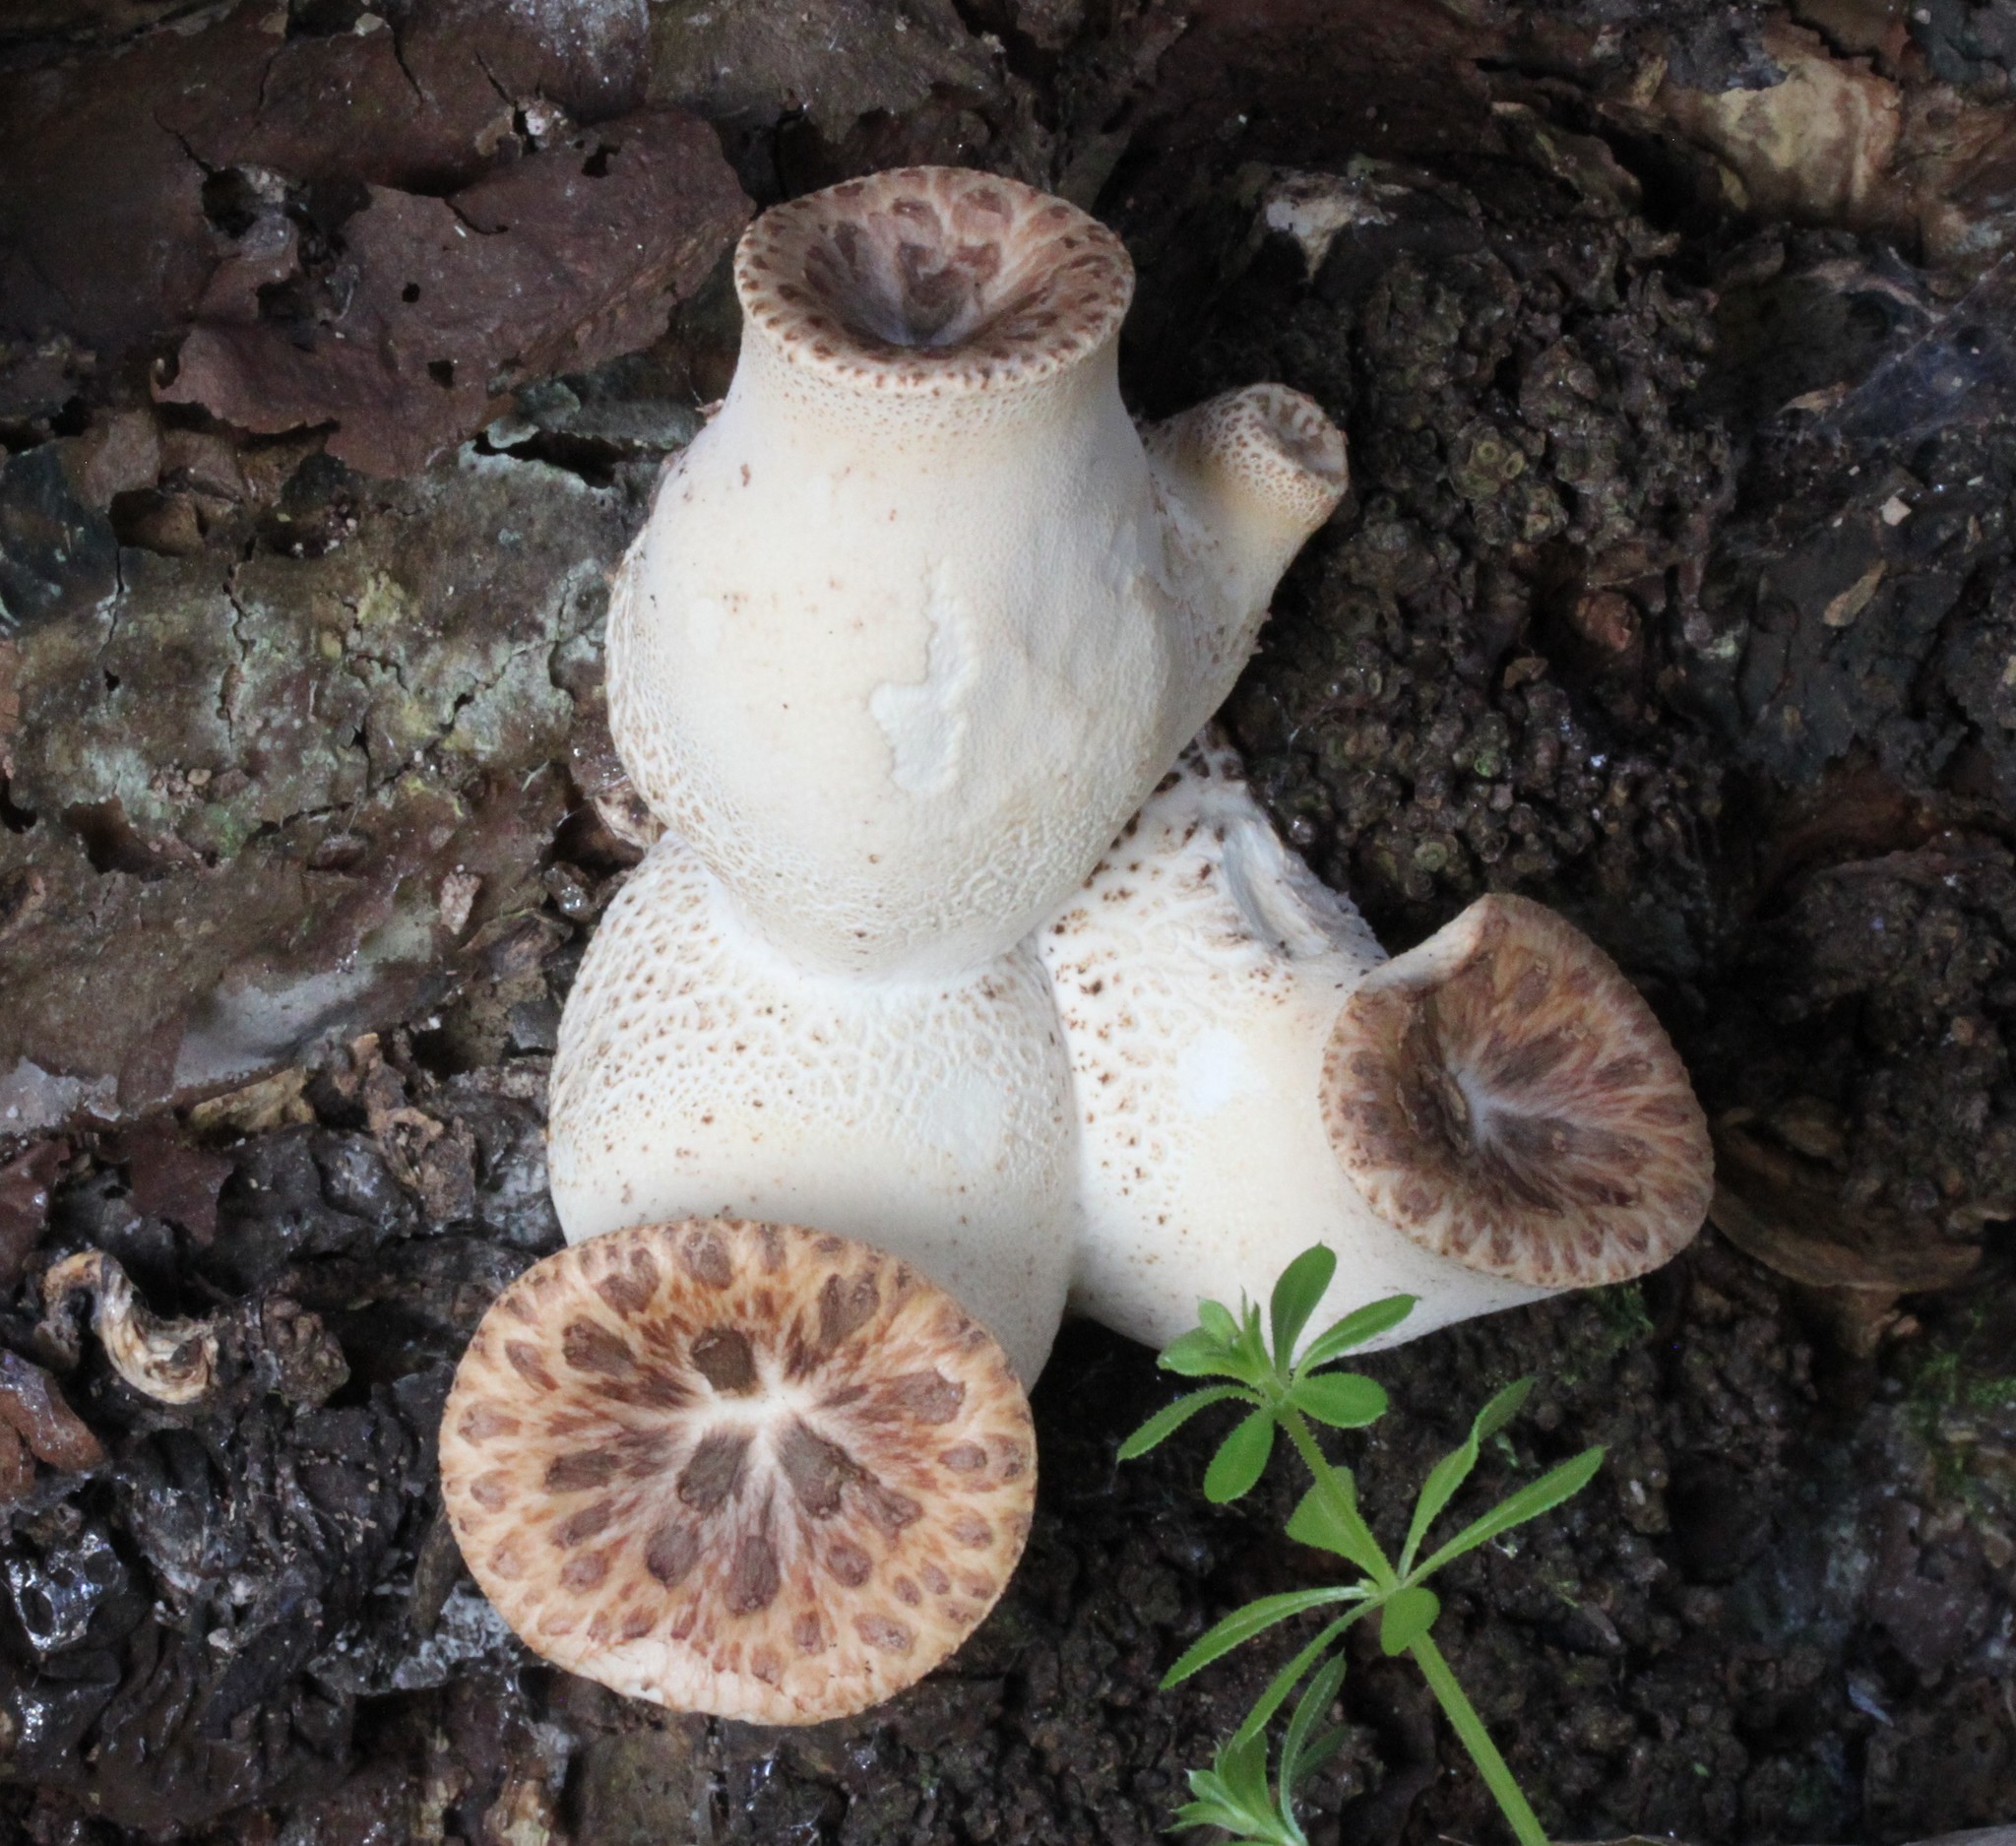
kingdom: Fungi
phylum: Basidiomycota
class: Agaricomycetes
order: Polyporales
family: Polyporaceae
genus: Cerioporus
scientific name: Cerioporus squamosus
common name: Dryad's saddle
